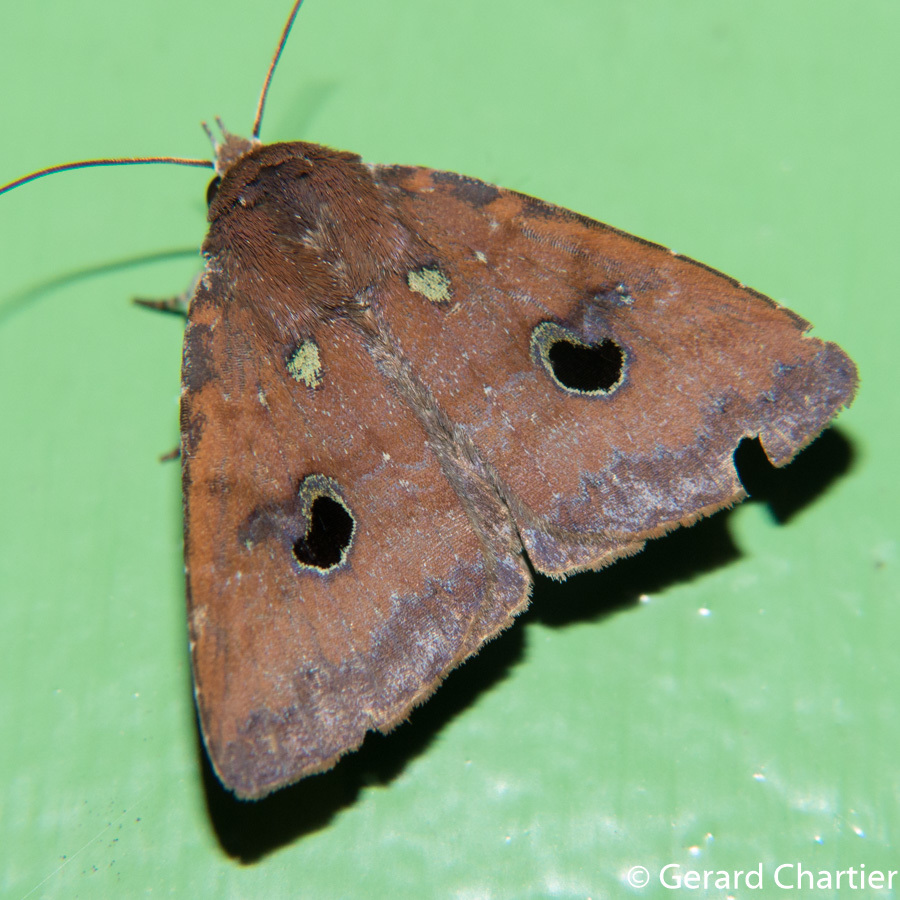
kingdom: Animalia
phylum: Arthropoda
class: Insecta
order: Lepidoptera
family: Erebidae
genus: Anereuthina
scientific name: Anereuthina renosa
